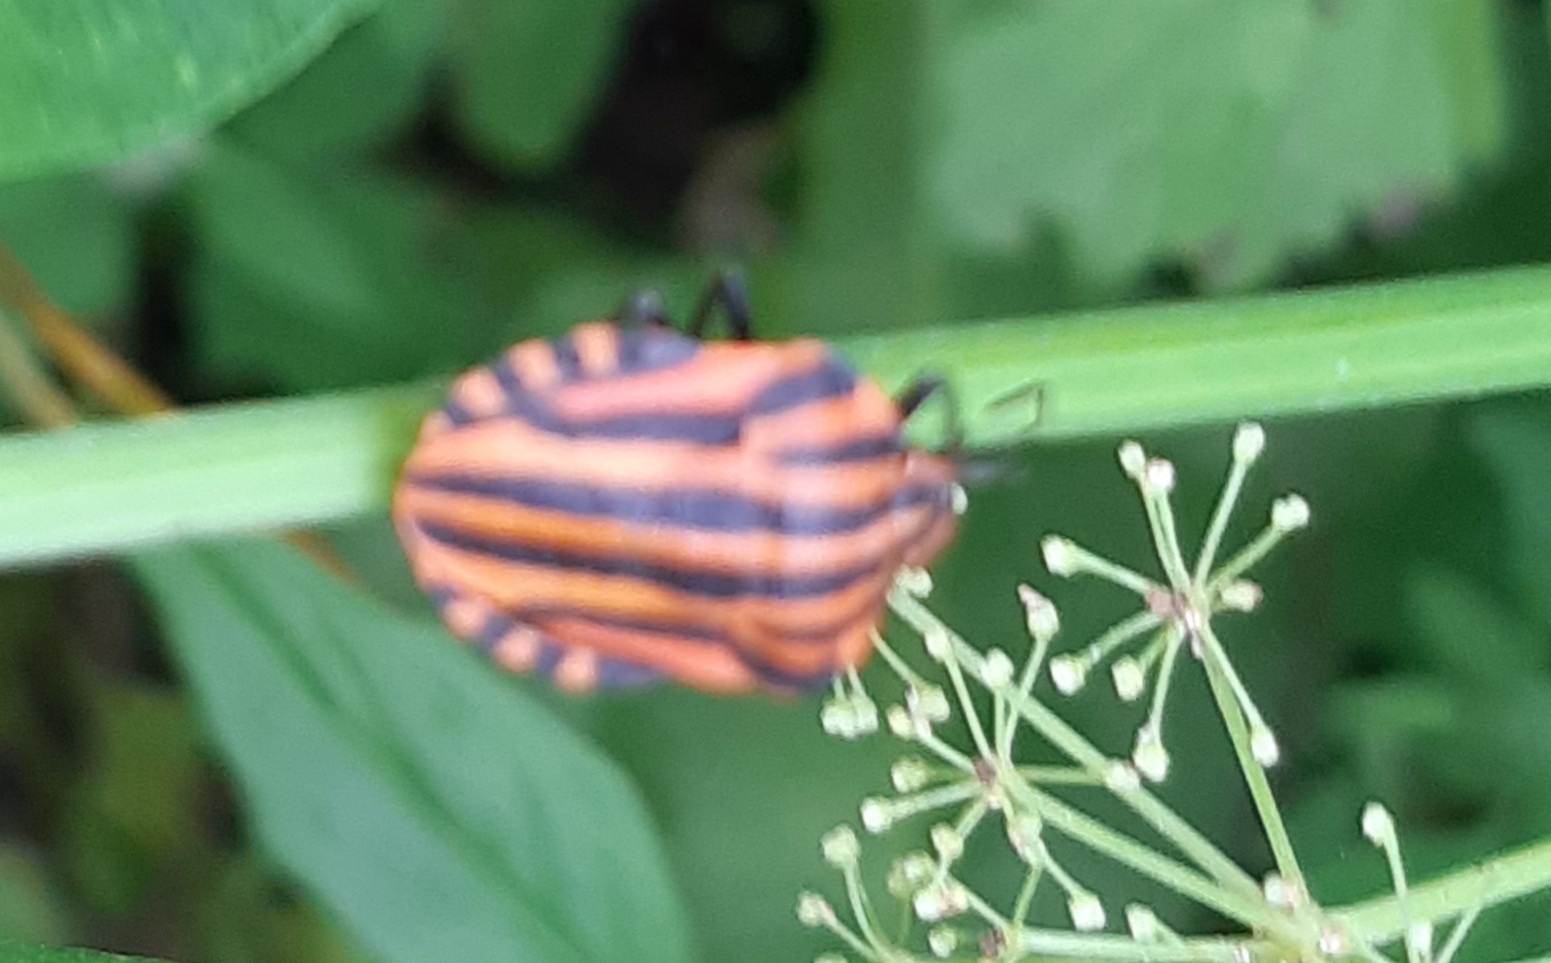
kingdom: Animalia
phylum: Arthropoda
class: Insecta
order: Hemiptera
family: Pentatomidae
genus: Graphosoma
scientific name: Graphosoma italicum
